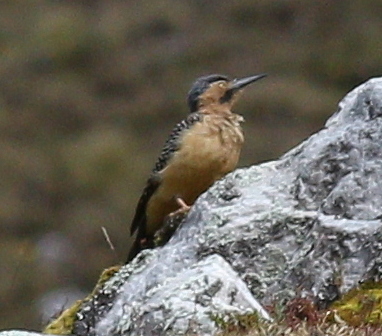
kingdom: Animalia
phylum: Chordata
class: Aves
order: Piciformes
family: Picidae
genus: Colaptes
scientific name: Colaptes rupicola
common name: Andean flicker
